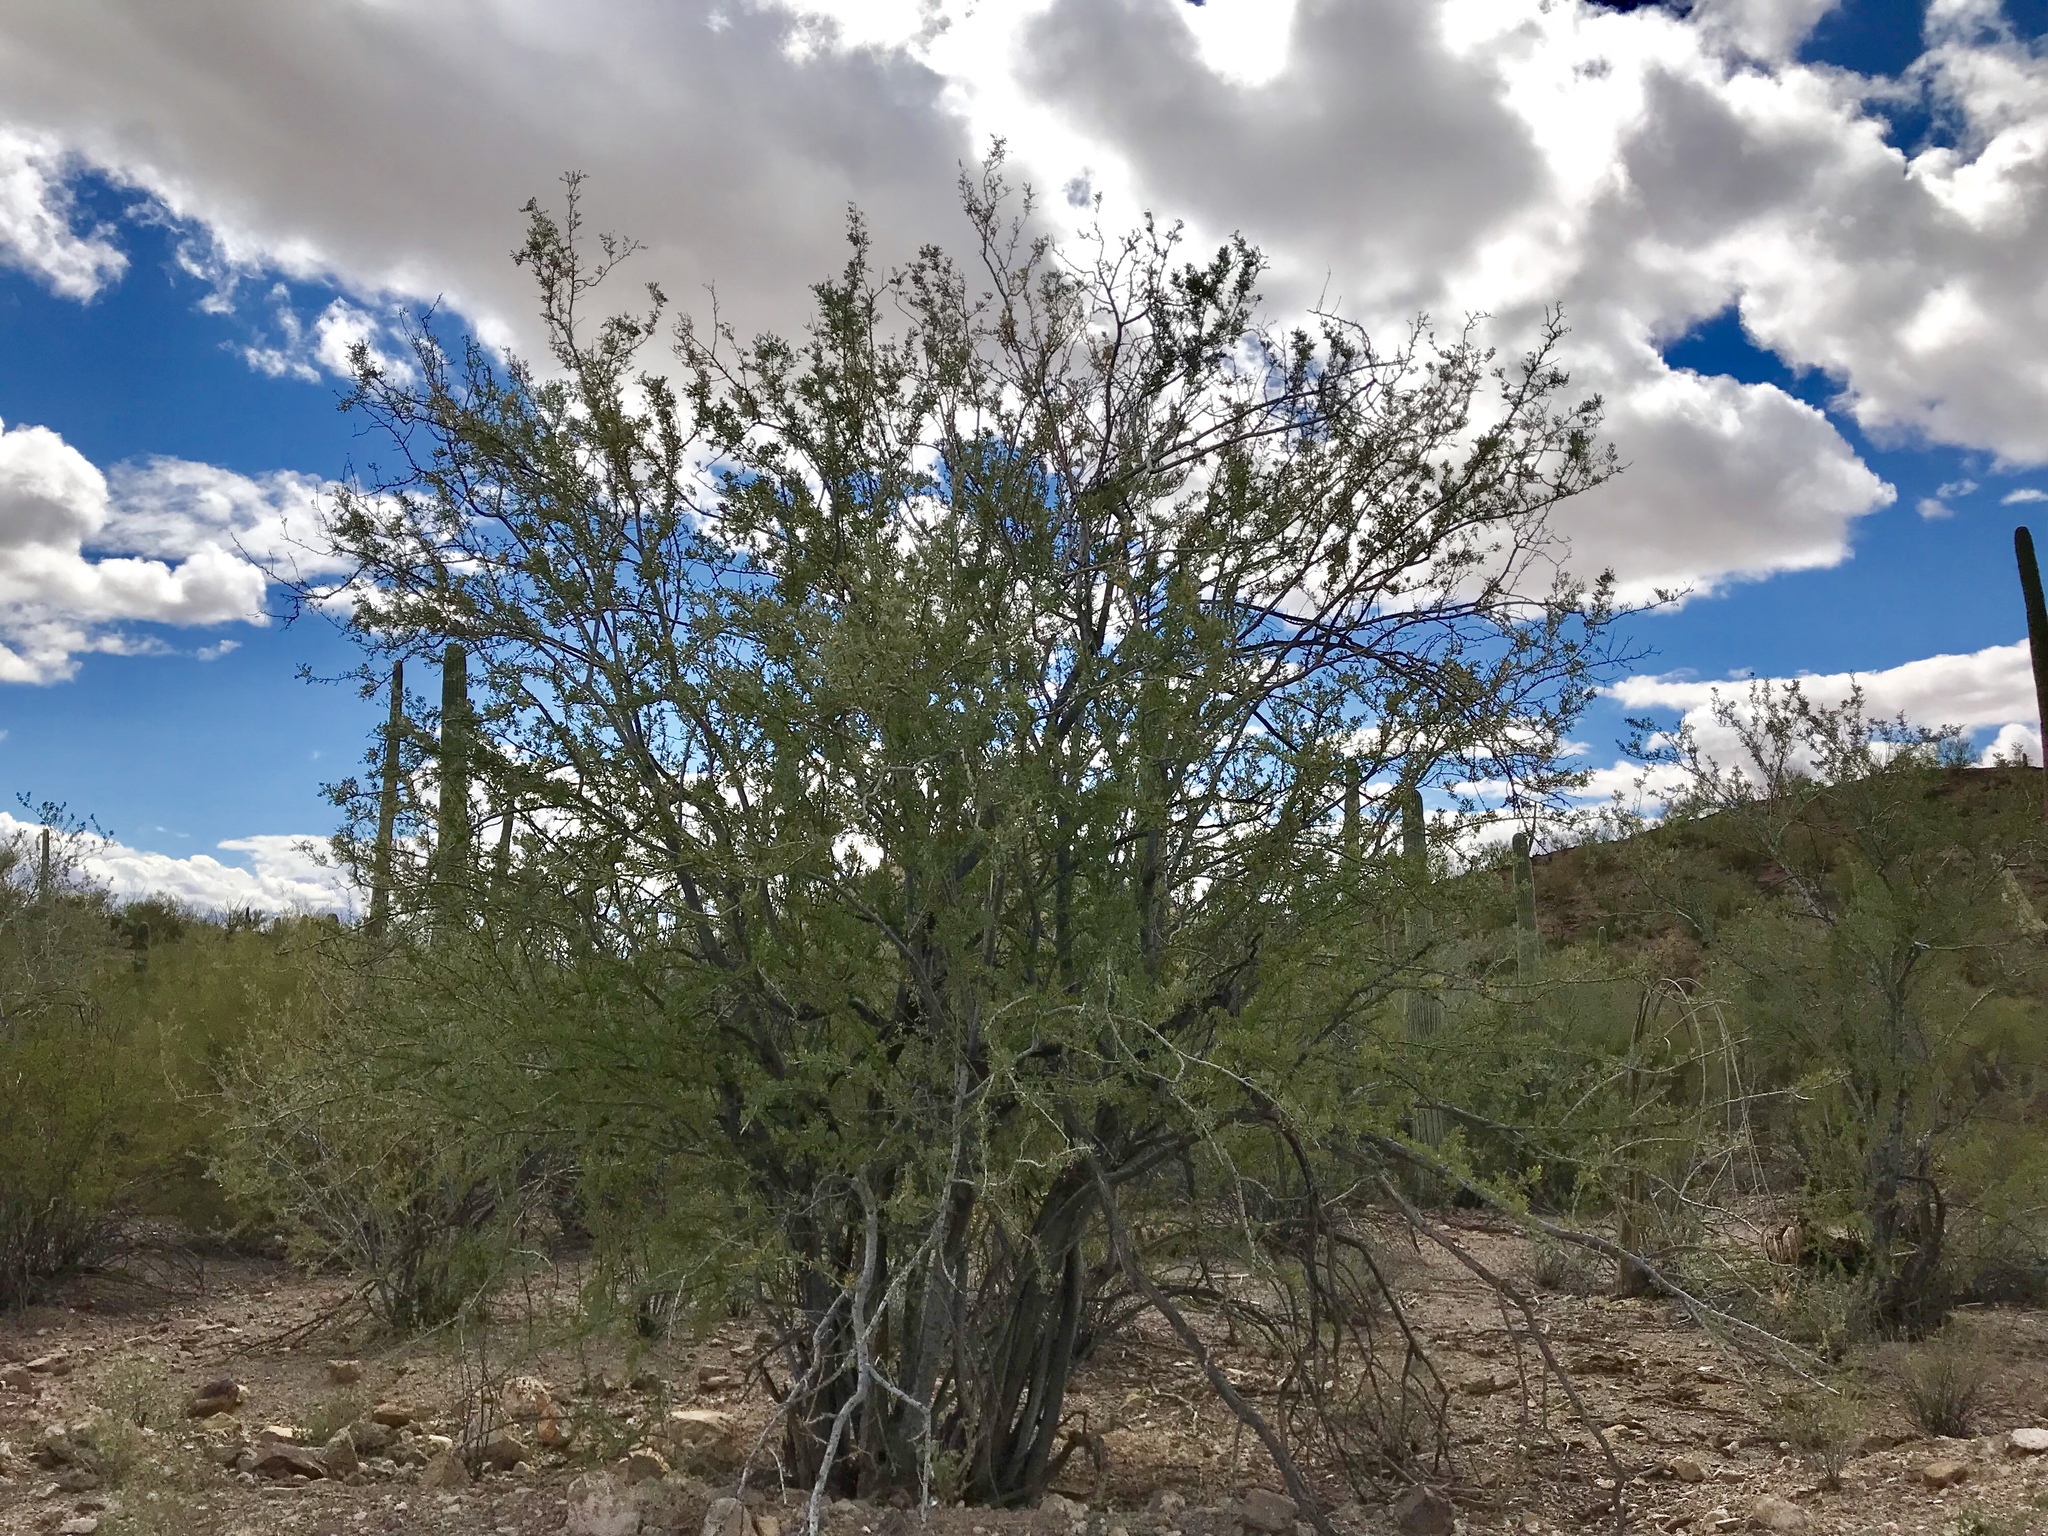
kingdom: Plantae
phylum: Tracheophyta
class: Magnoliopsida
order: Fabales
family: Fabaceae
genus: Olneya
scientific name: Olneya tesota
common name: Desert ironwood
